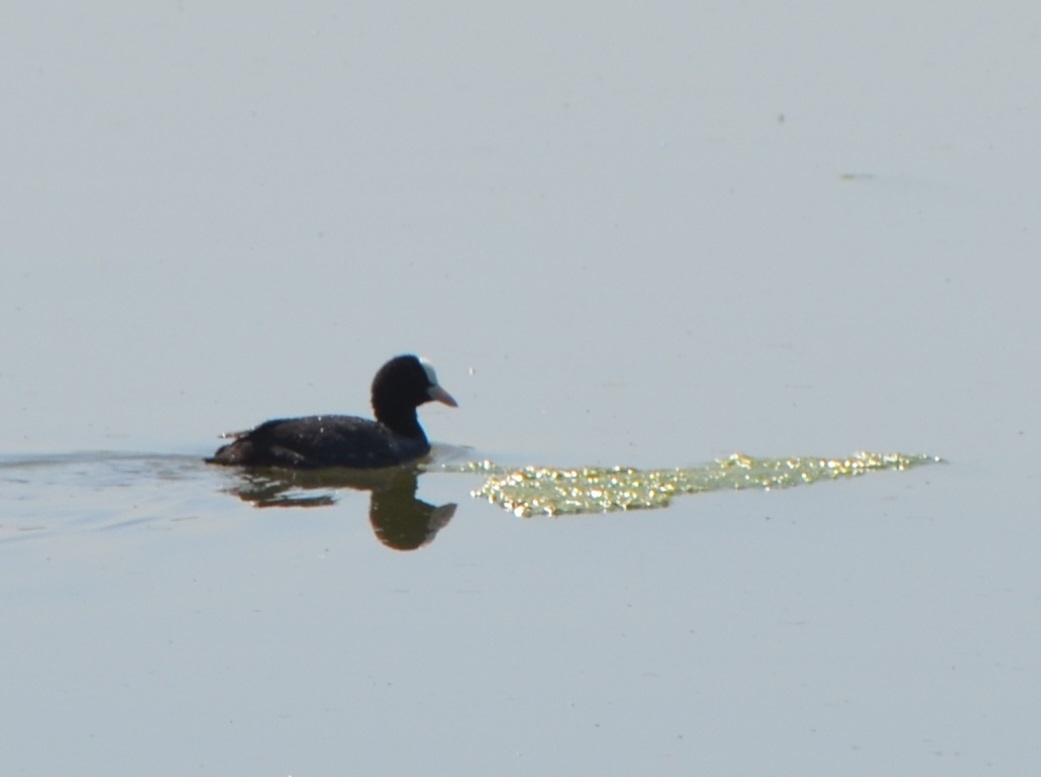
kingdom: Animalia
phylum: Chordata
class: Aves
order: Gruiformes
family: Rallidae
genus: Fulica
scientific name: Fulica atra
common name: Eurasian coot
